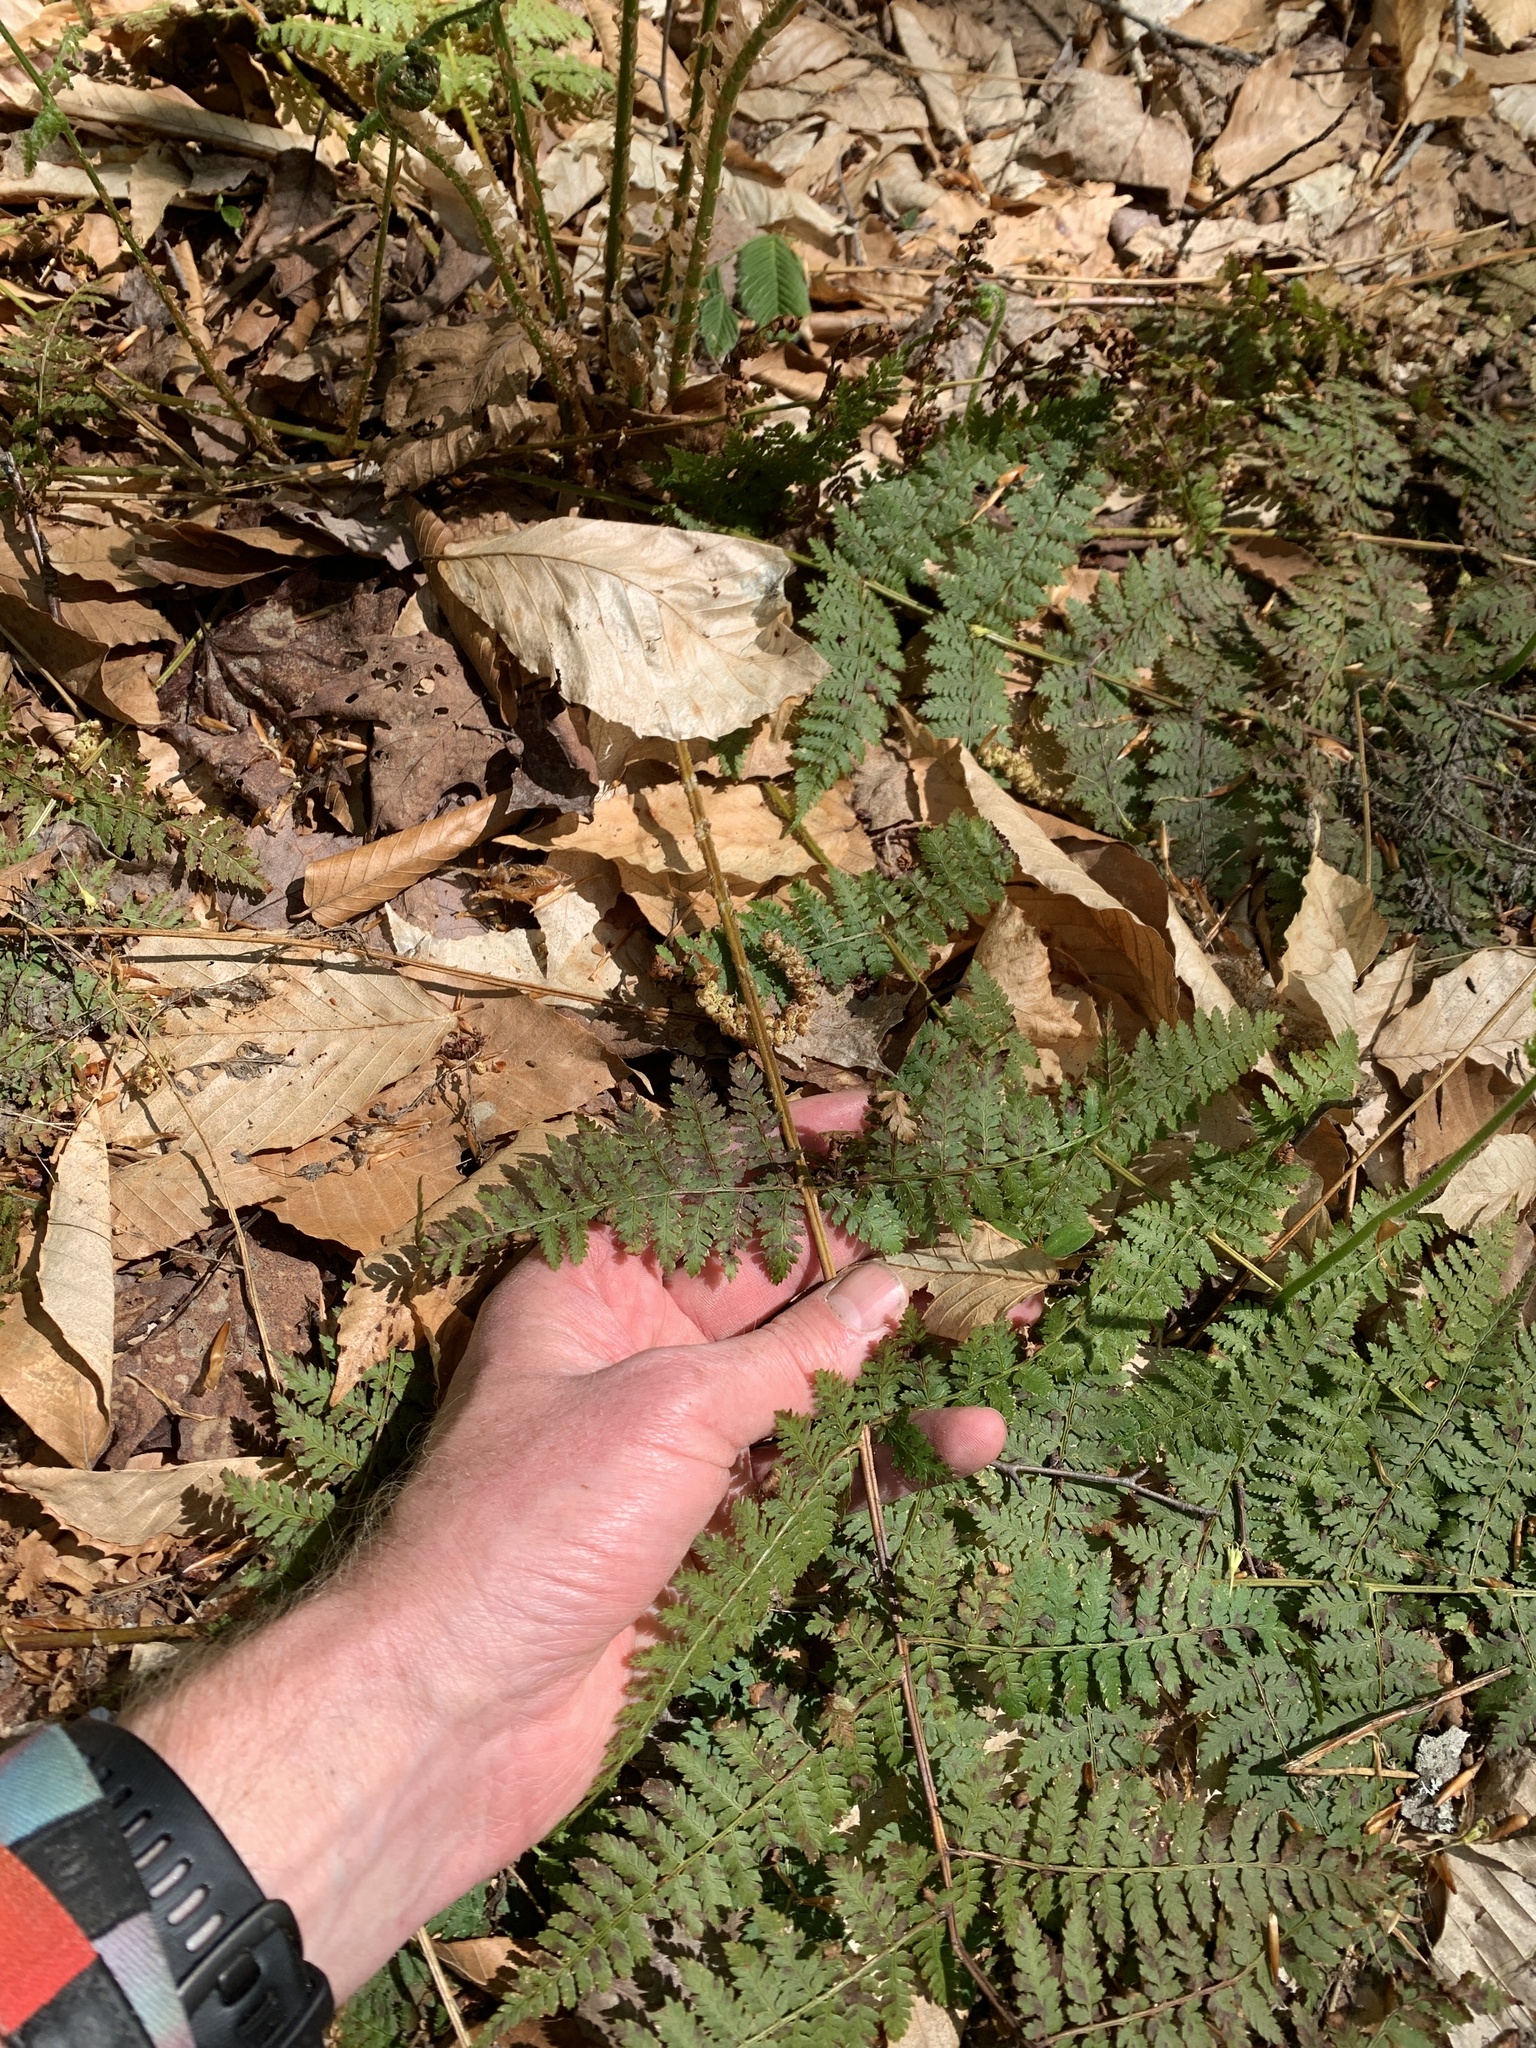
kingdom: Plantae
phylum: Tracheophyta
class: Polypodiopsida
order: Polypodiales
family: Dryopteridaceae
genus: Dryopteris
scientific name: Dryopteris intermedia
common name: Evergreen wood fern
